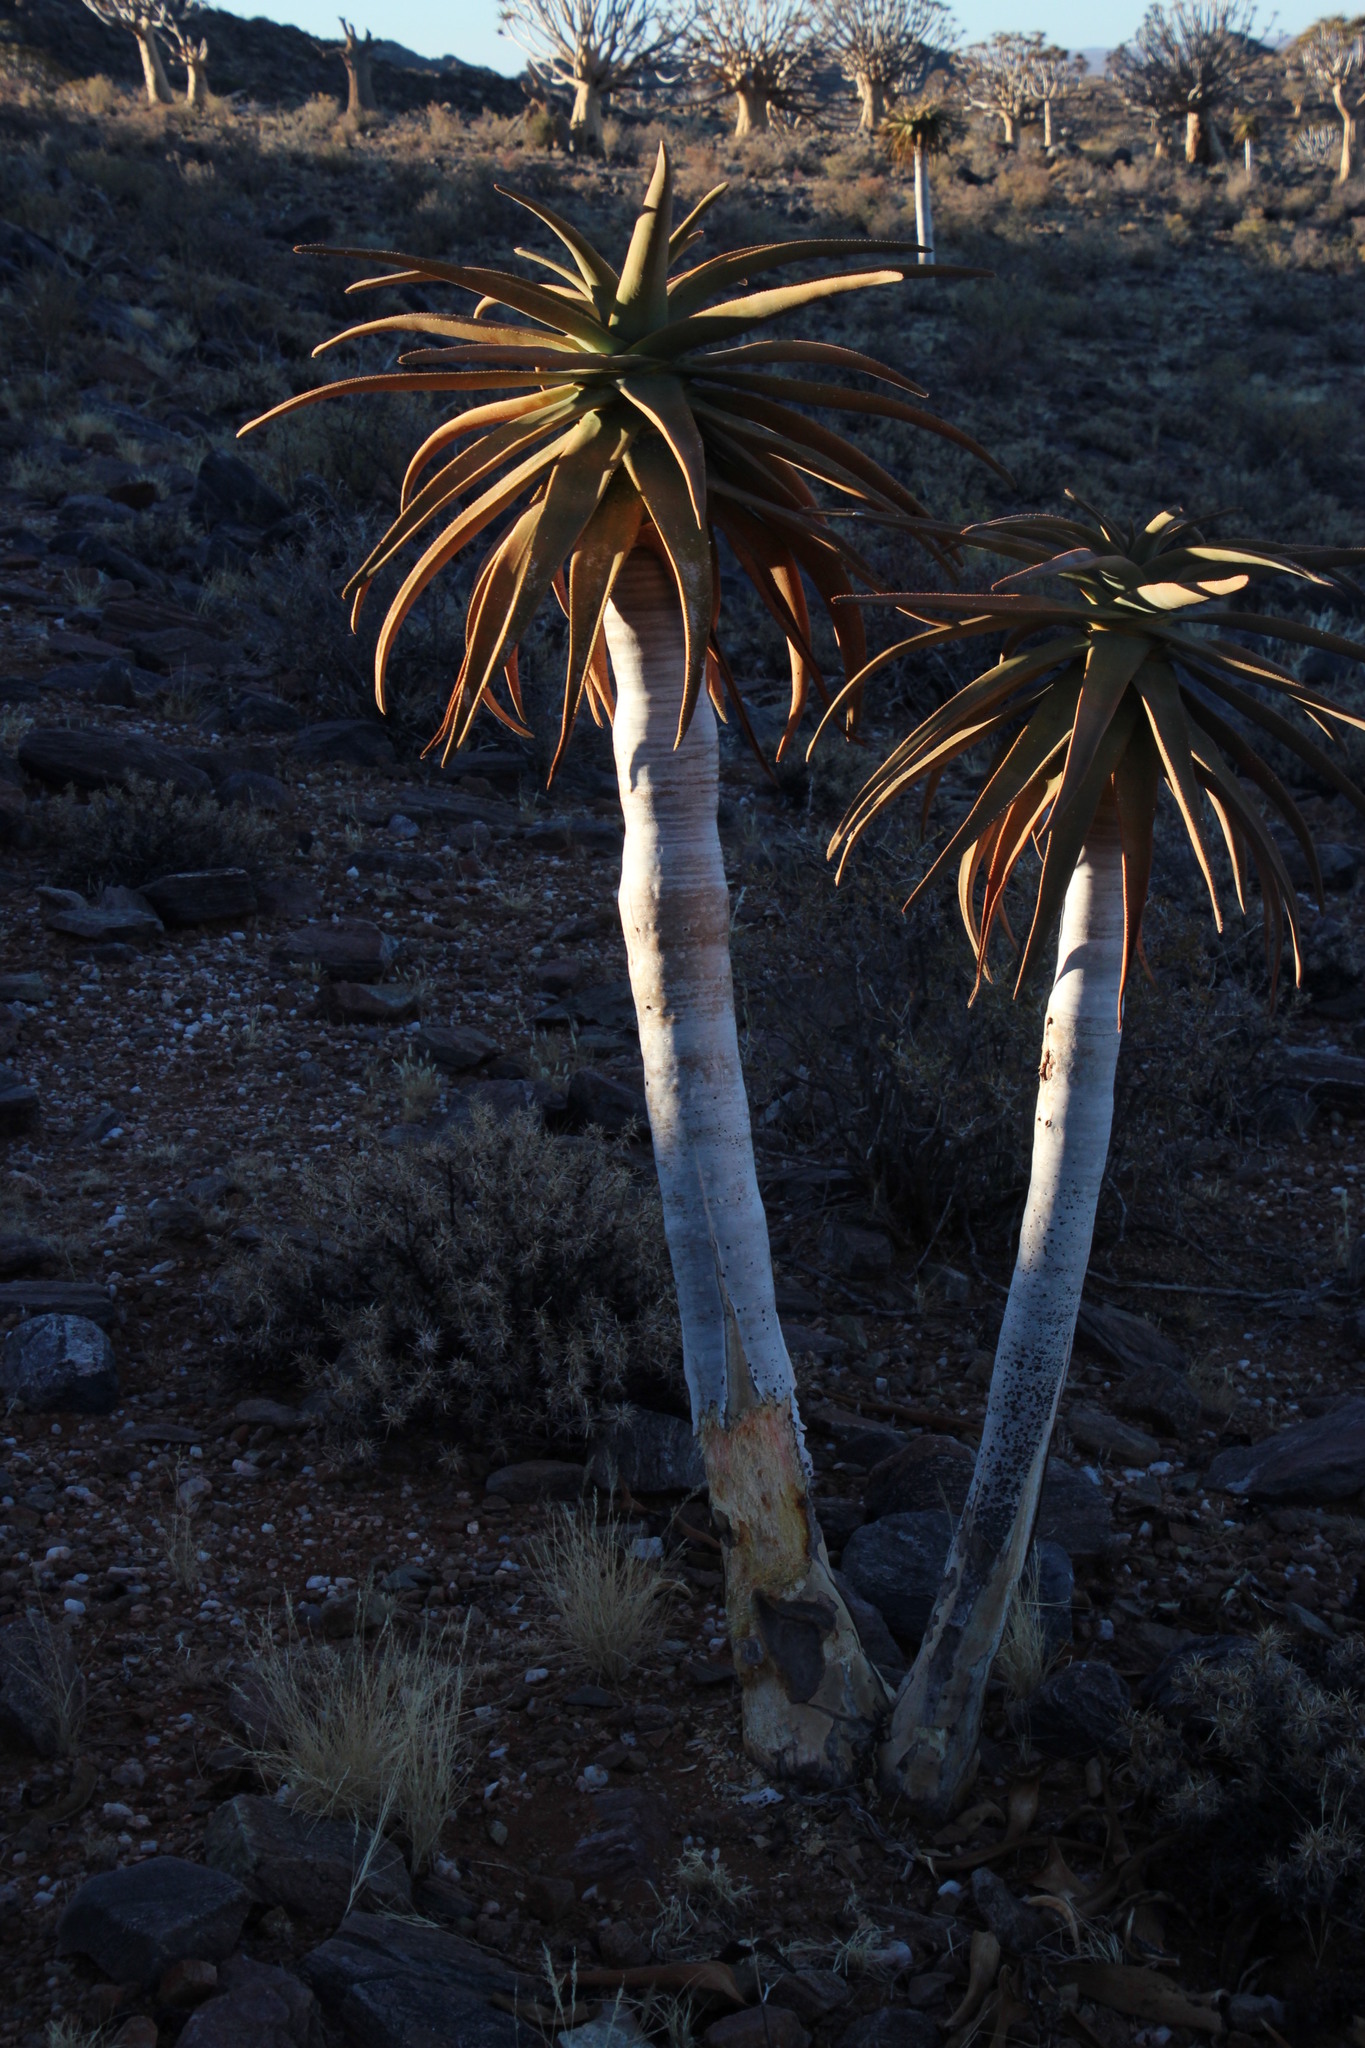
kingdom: Animalia
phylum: Chordata
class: Mammalia
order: Rodentia
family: Hystricidae
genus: Hystrix
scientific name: Hystrix africaeaustralis
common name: Cape porcupine
